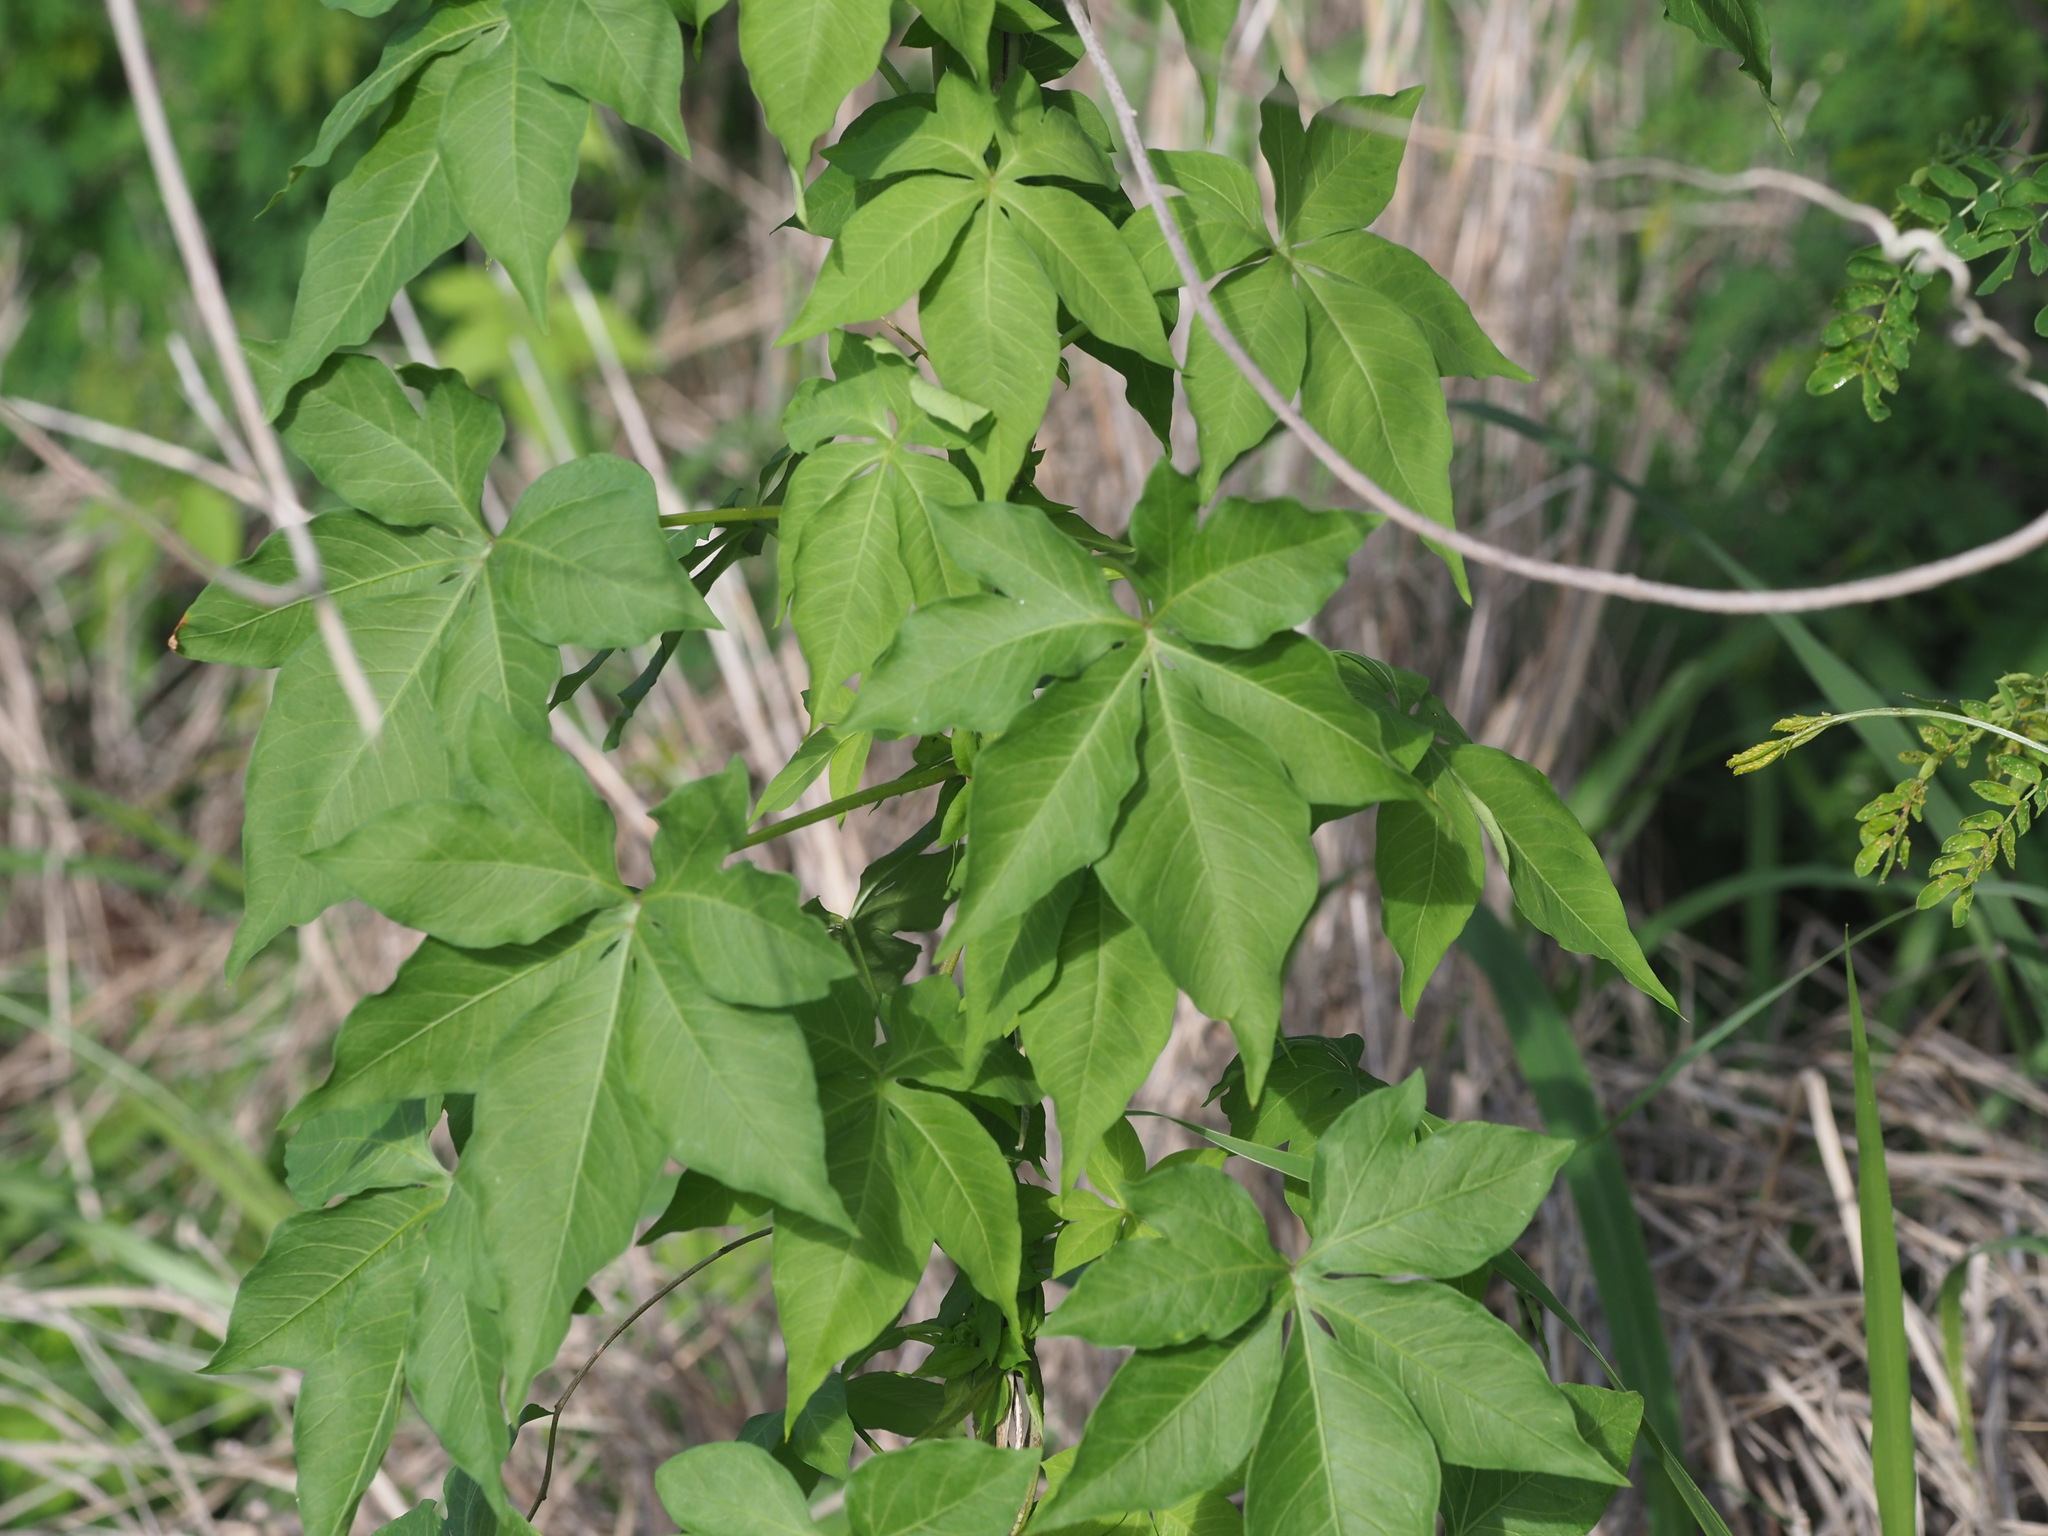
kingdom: Plantae
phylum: Tracheophyta
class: Magnoliopsida
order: Solanales
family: Convolvulaceae
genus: Ipomoea
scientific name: Ipomoea cairica
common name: Mile a minute vine
